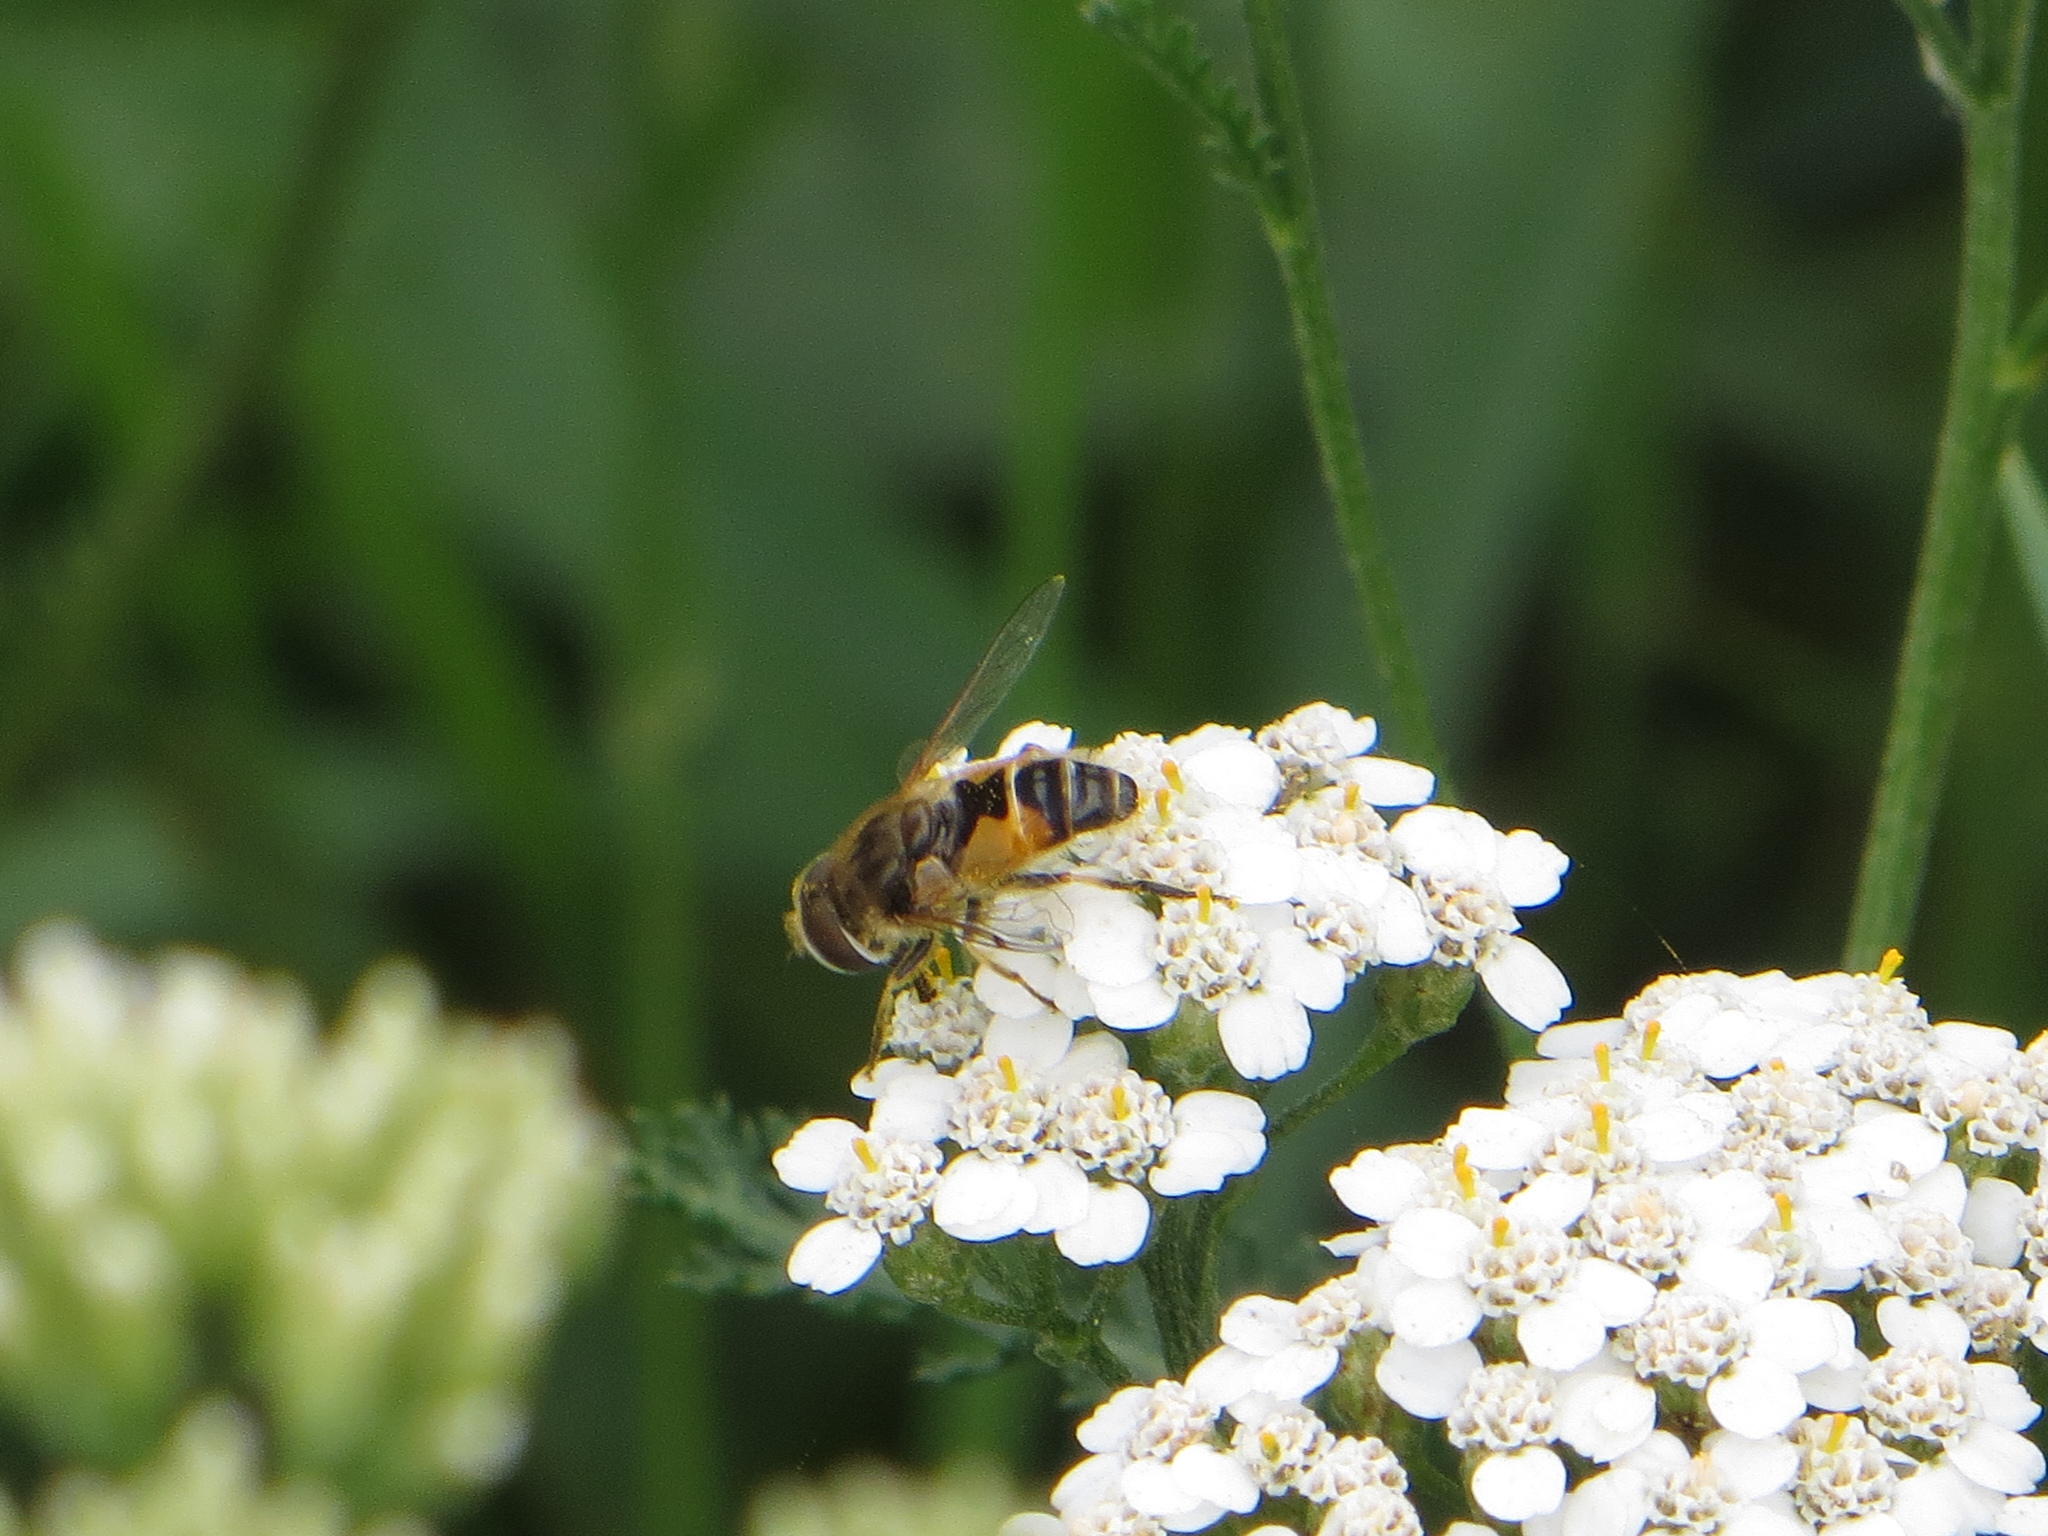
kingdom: Animalia
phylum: Arthropoda
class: Insecta
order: Diptera
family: Syrphidae
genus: Eristalis
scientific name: Eristalis arbustorum
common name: Hover fly
